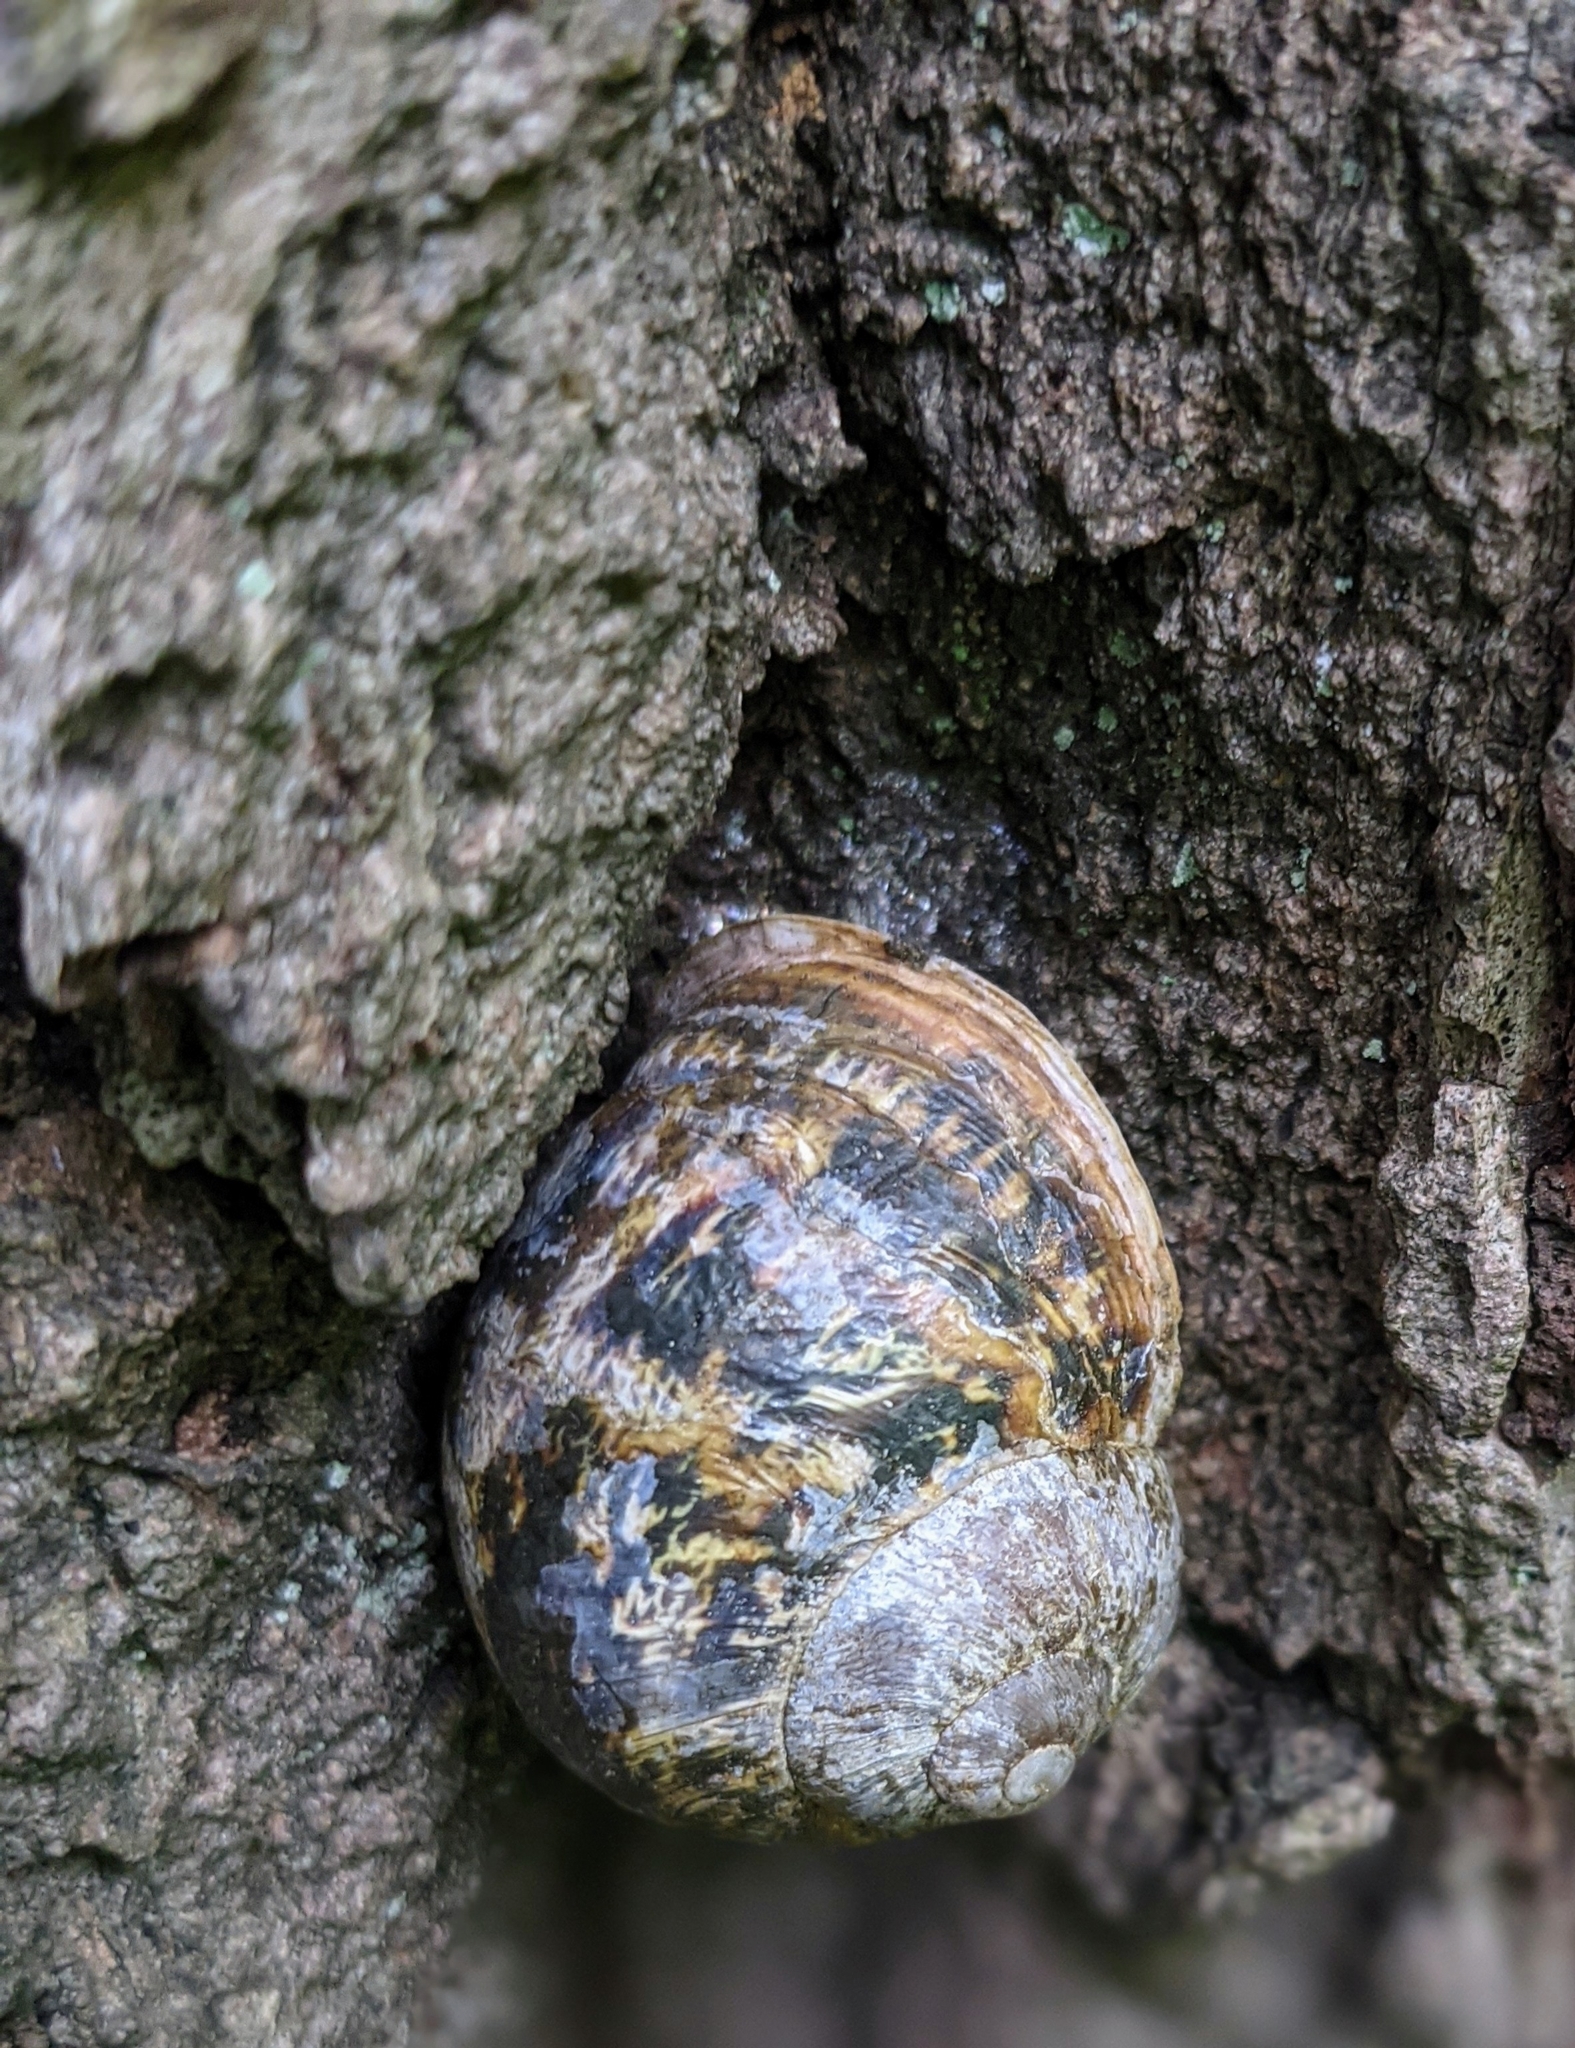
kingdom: Animalia
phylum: Mollusca
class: Gastropoda
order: Stylommatophora
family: Helicidae
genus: Cornu
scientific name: Cornu aspersum
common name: Brown garden snail
